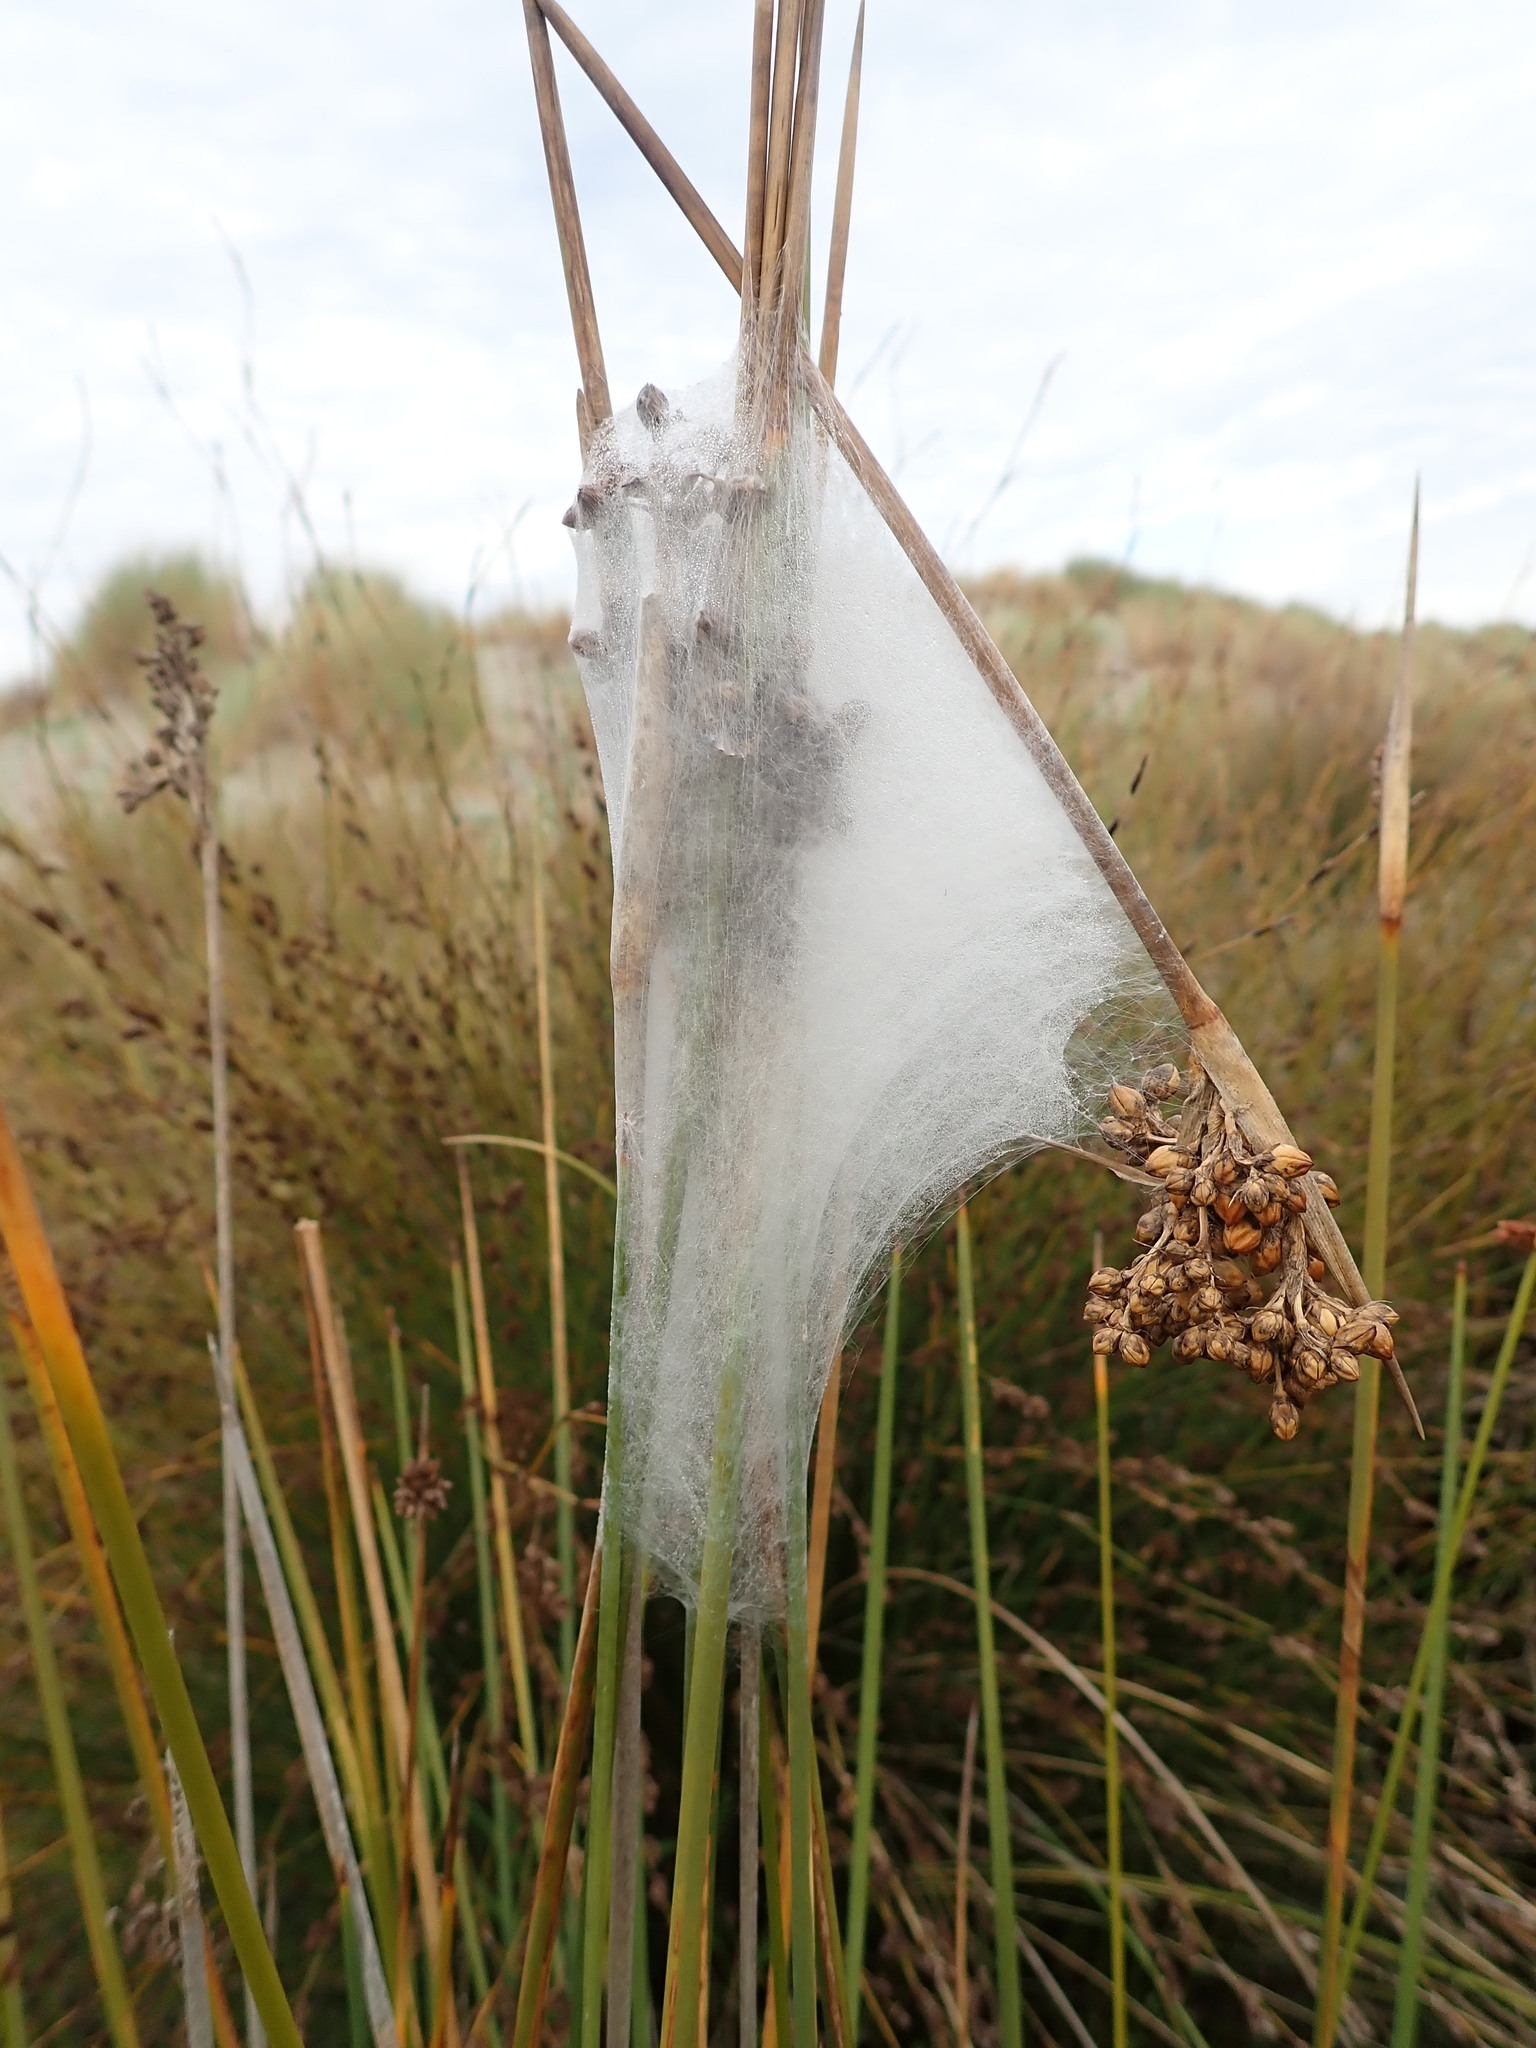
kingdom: Animalia
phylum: Arthropoda
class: Arachnida
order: Araneae
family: Pisauridae
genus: Dolomedes
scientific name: Dolomedes minor
